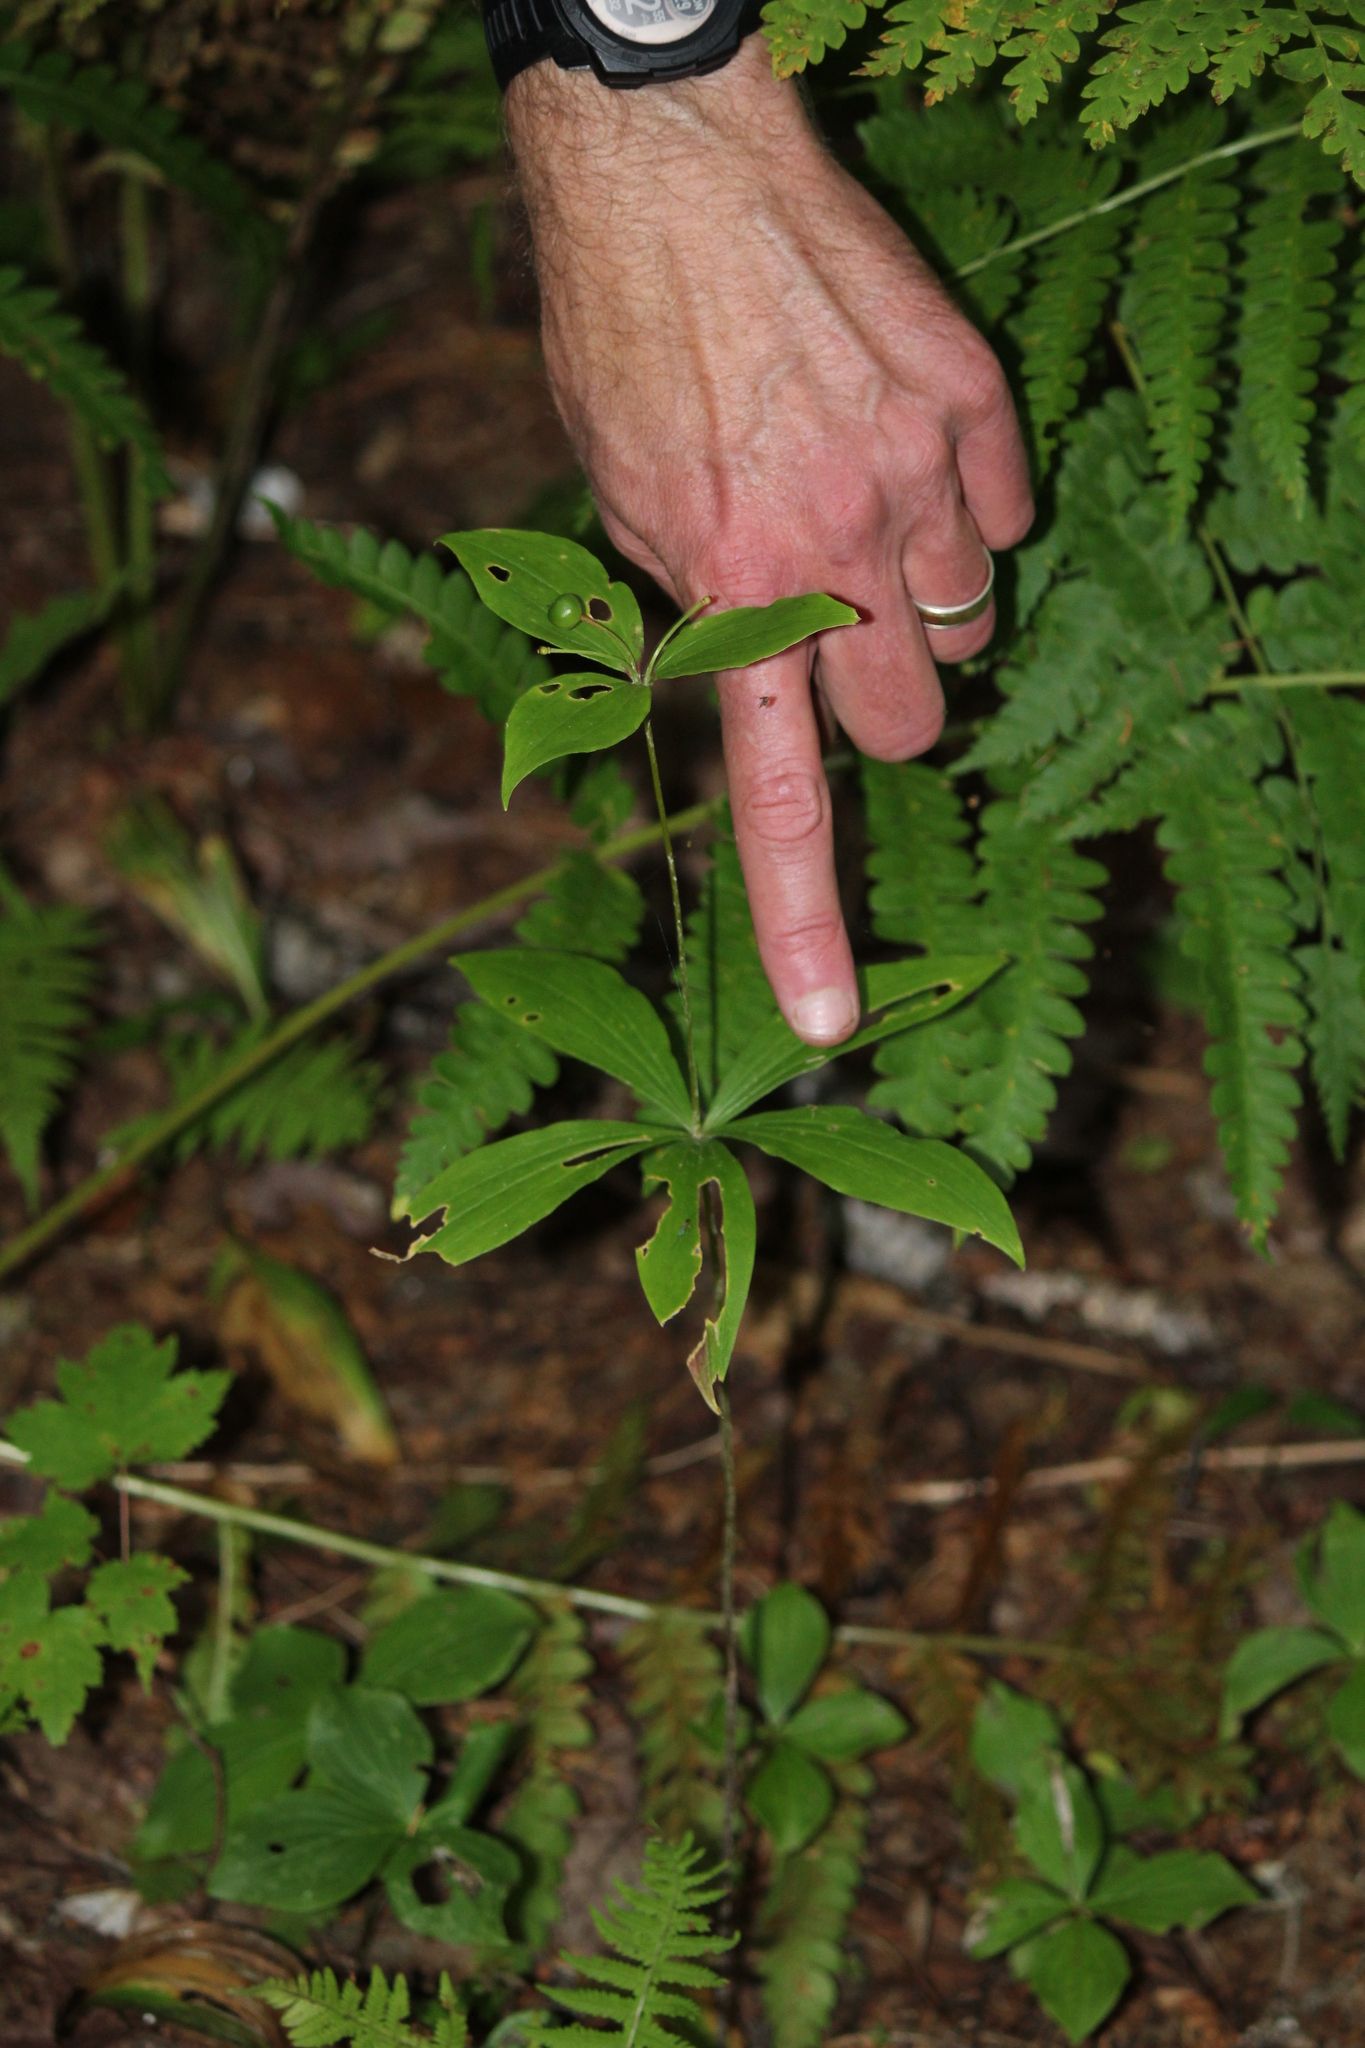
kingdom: Plantae
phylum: Tracheophyta
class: Liliopsida
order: Liliales
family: Liliaceae
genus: Medeola
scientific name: Medeola virginiana
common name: Indian cucumber-root
